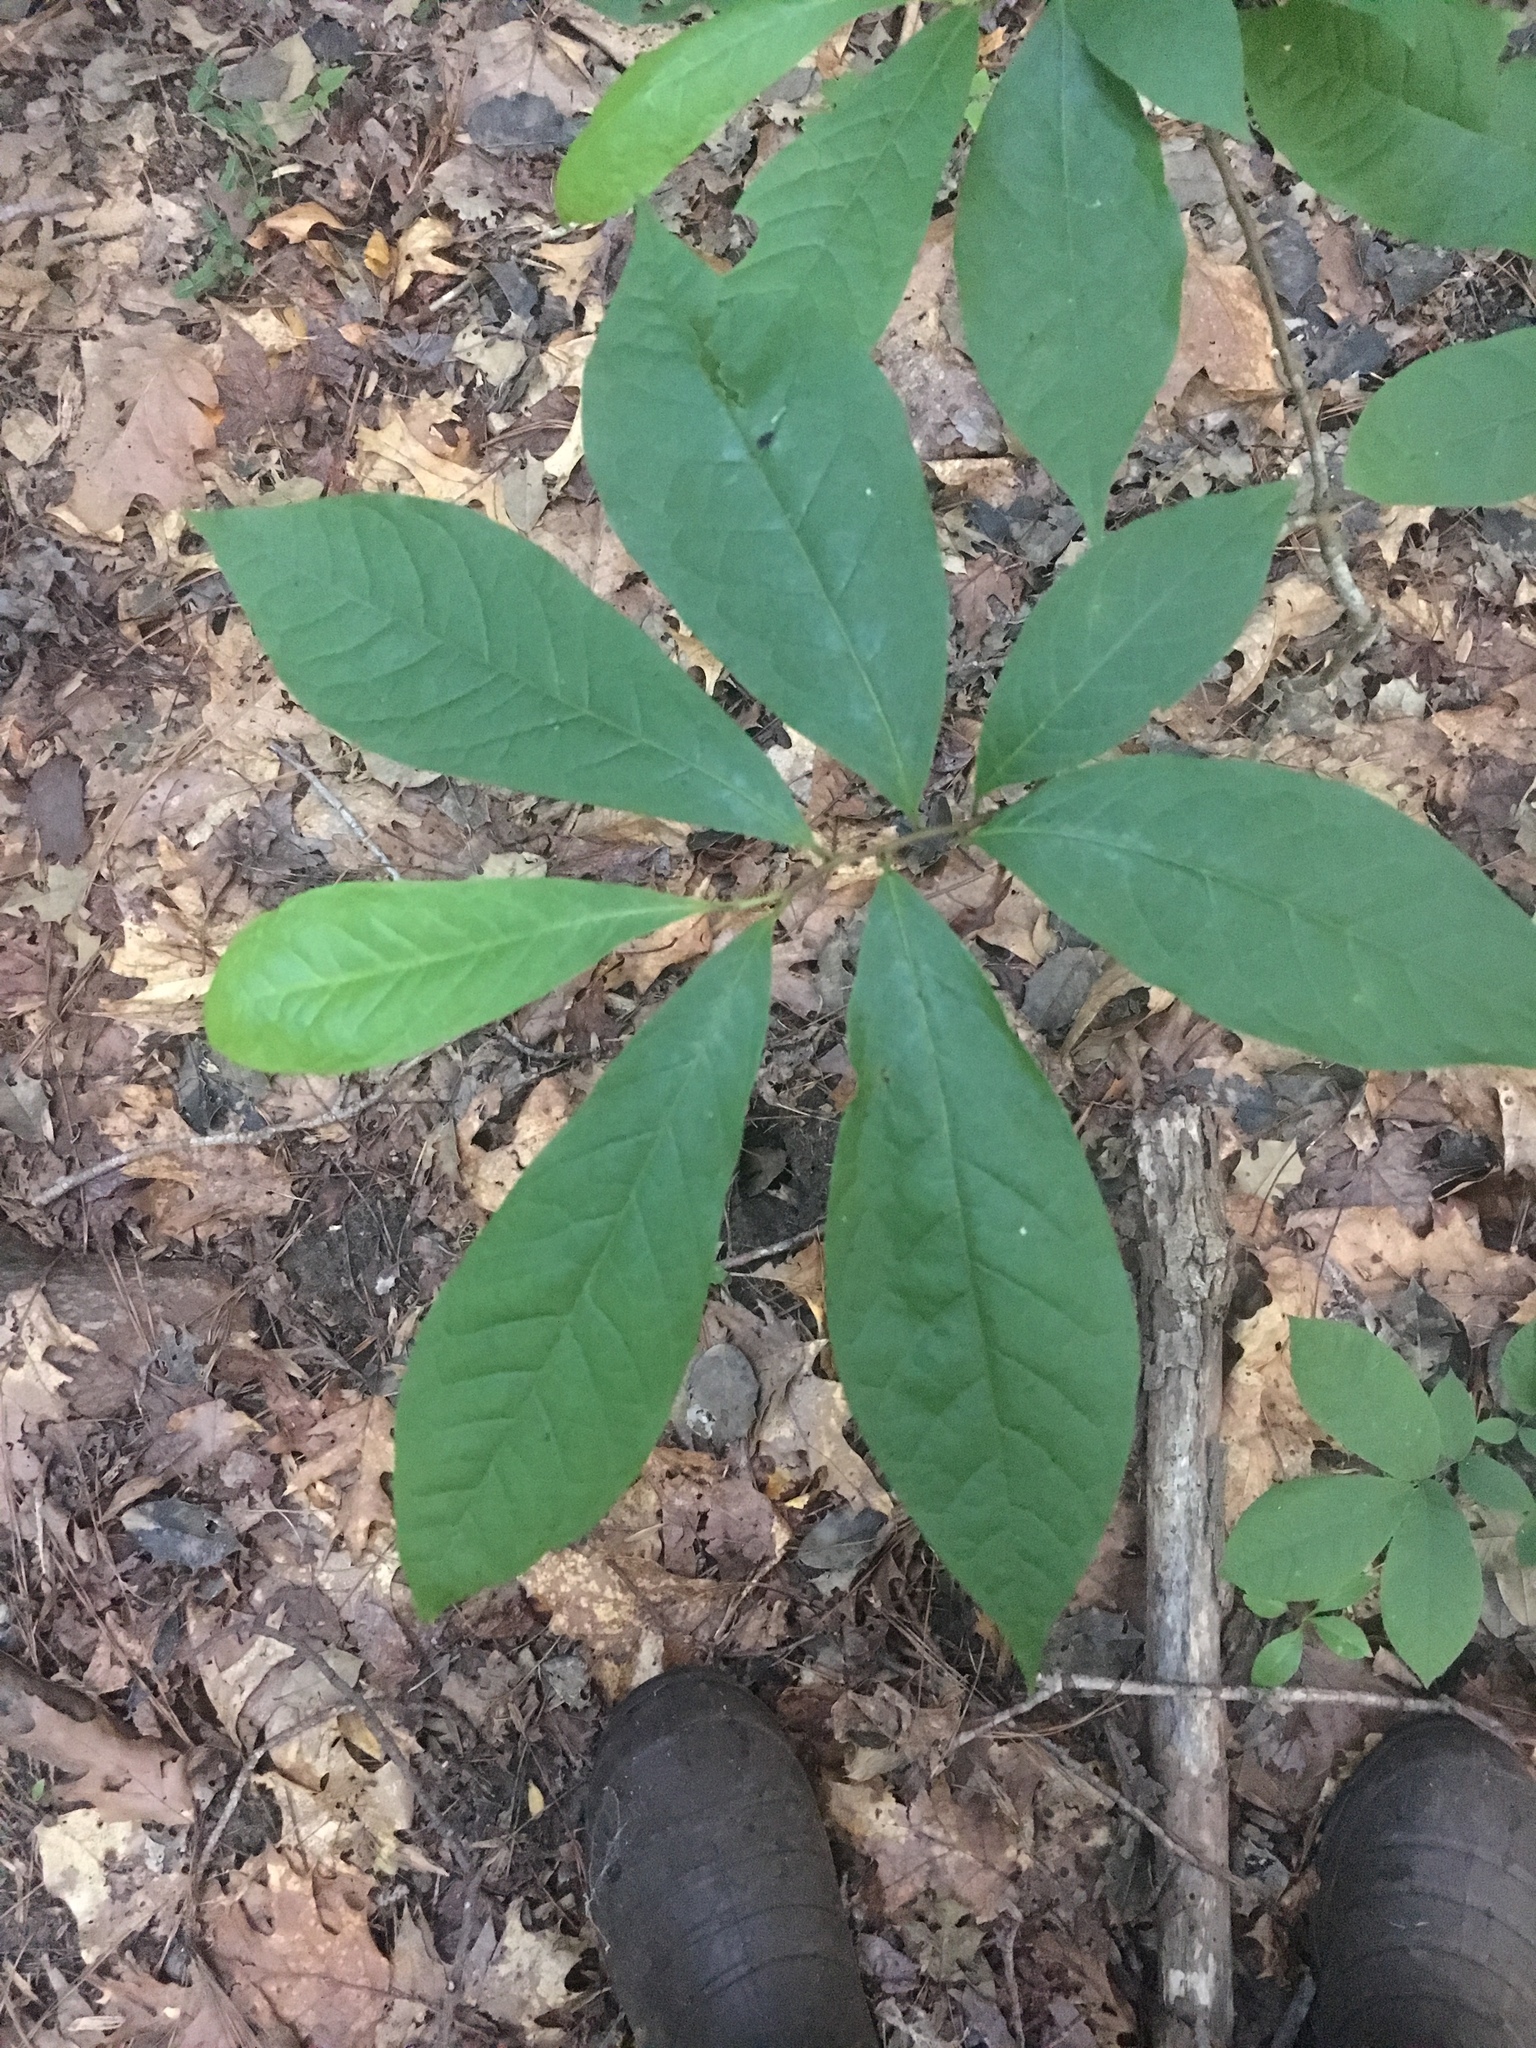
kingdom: Plantae
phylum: Tracheophyta
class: Magnoliopsida
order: Magnoliales
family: Annonaceae
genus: Asimina
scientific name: Asimina triloba
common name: Dog-banana
